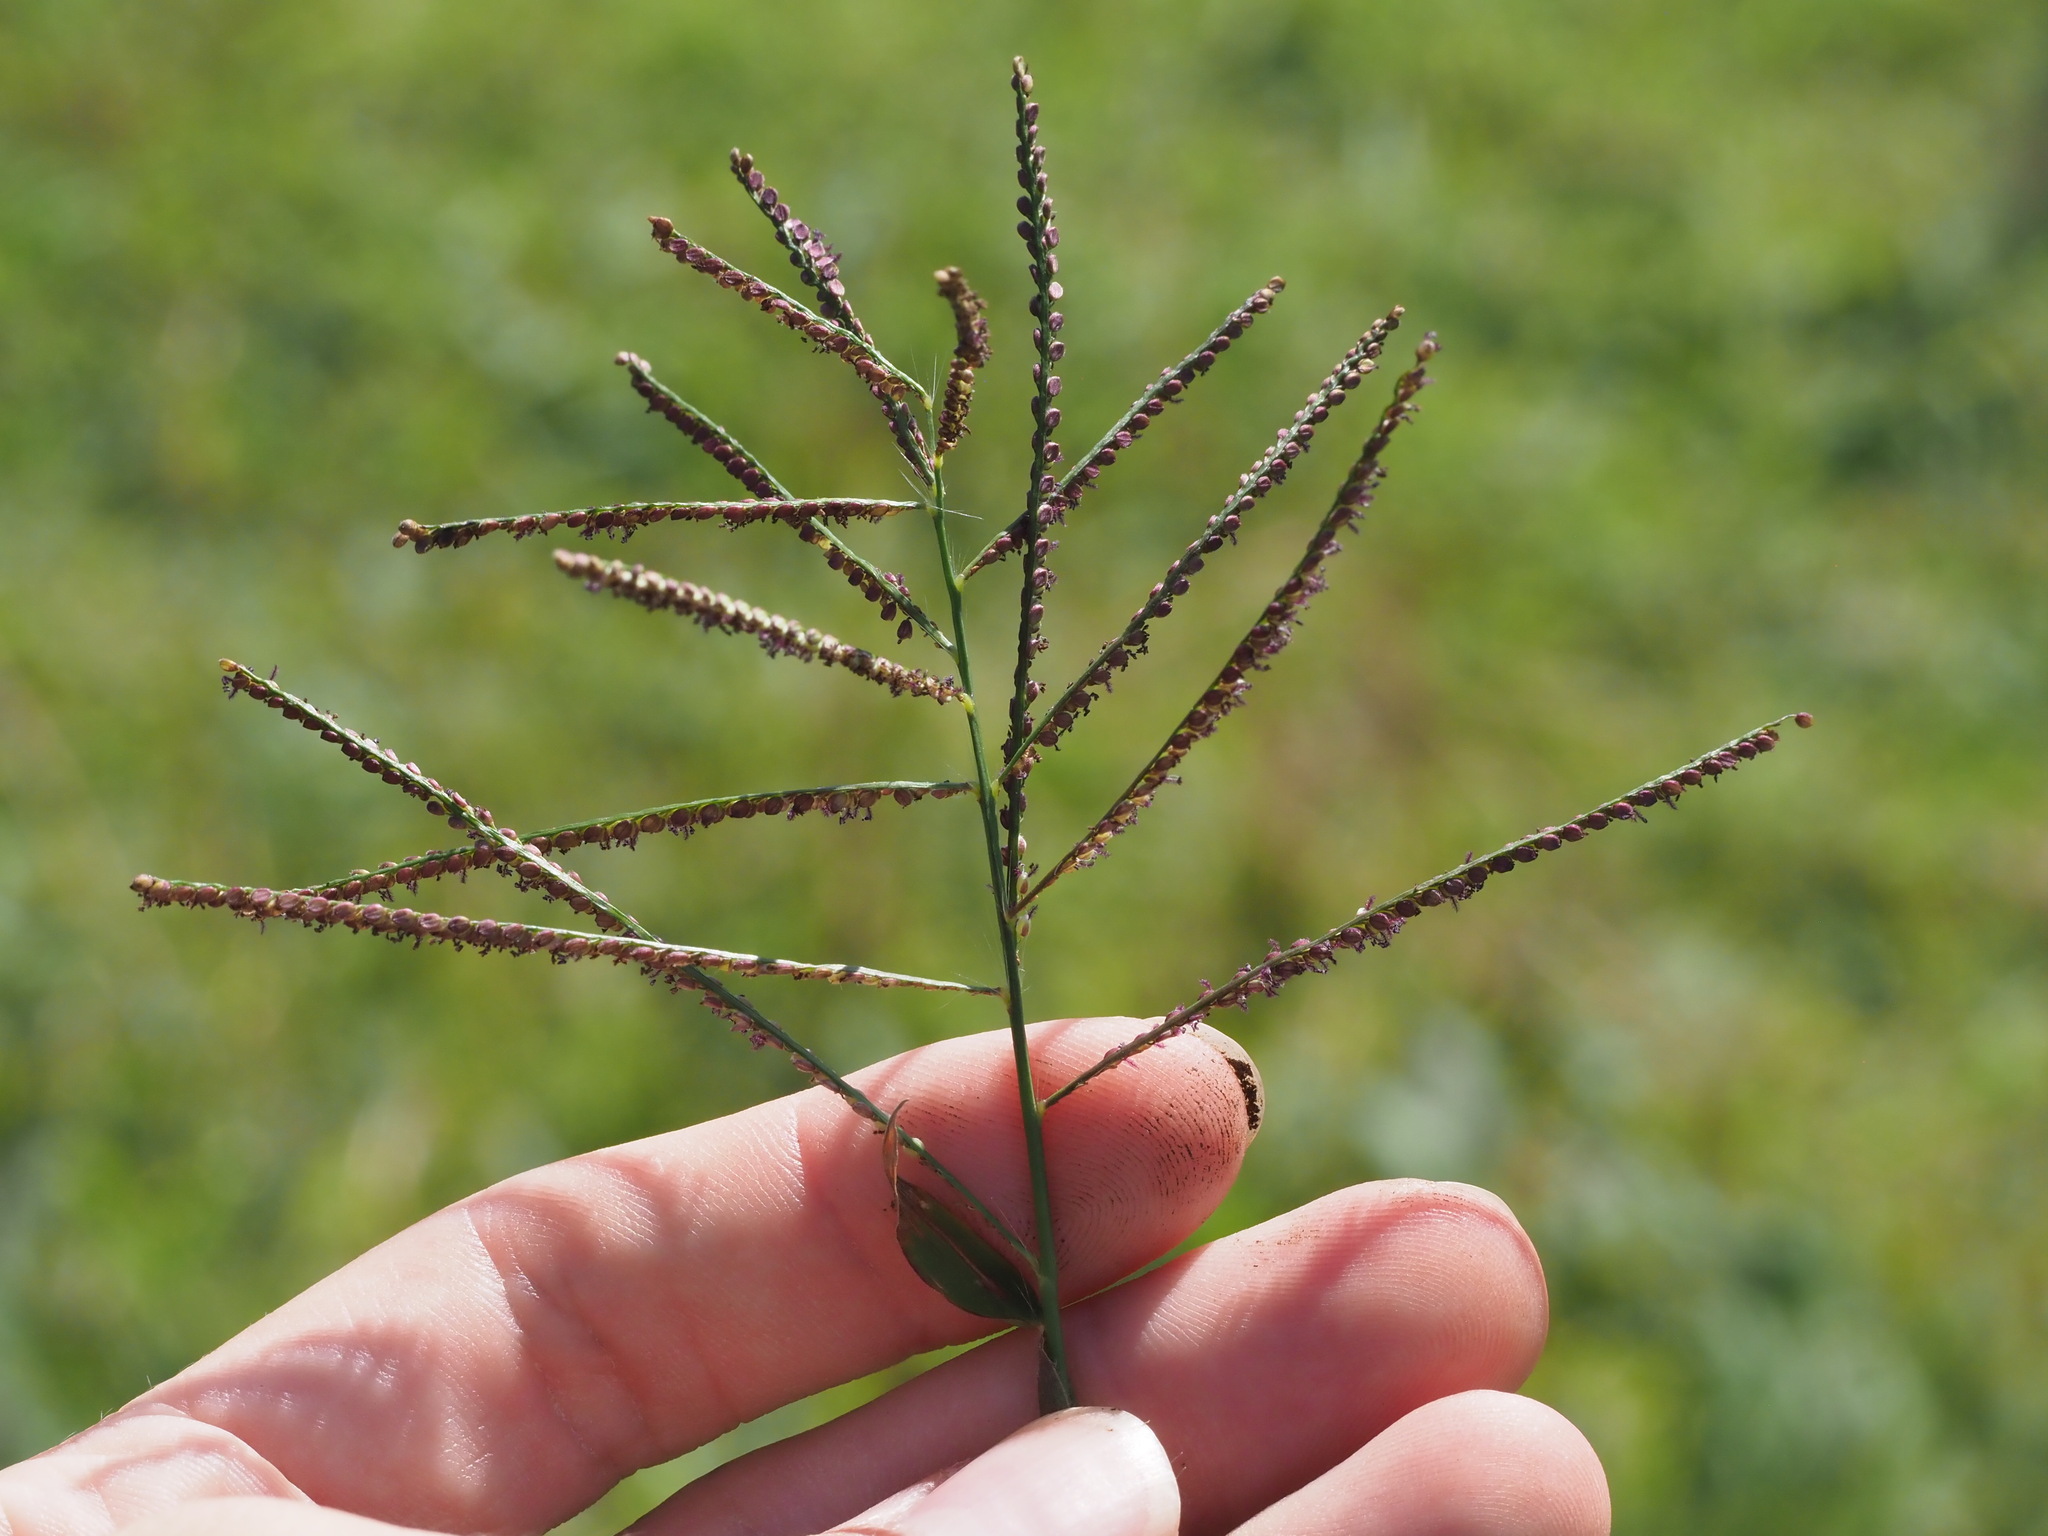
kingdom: Plantae
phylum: Tracheophyta
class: Liliopsida
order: Poales
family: Poaceae
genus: Paspalum
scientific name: Paspalum paniculatum
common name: Arrocillo
